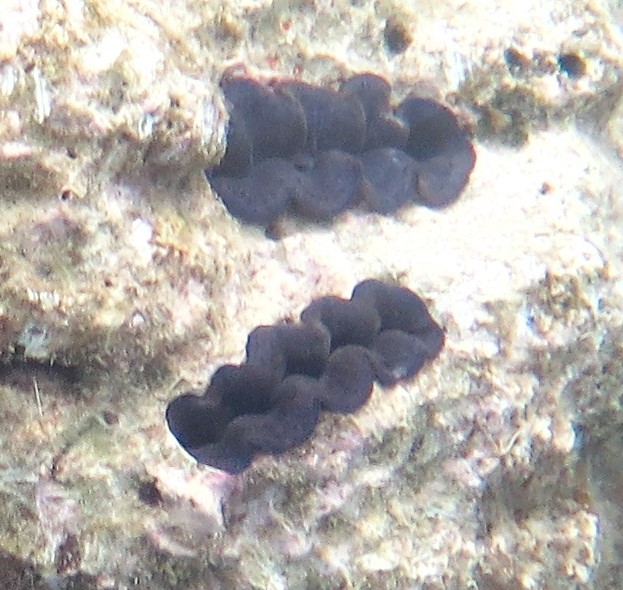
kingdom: Animalia
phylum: Mollusca
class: Bivalvia
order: Cardiida
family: Cardiidae
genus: Tridacna
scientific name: Tridacna crocea
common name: Boring clam
